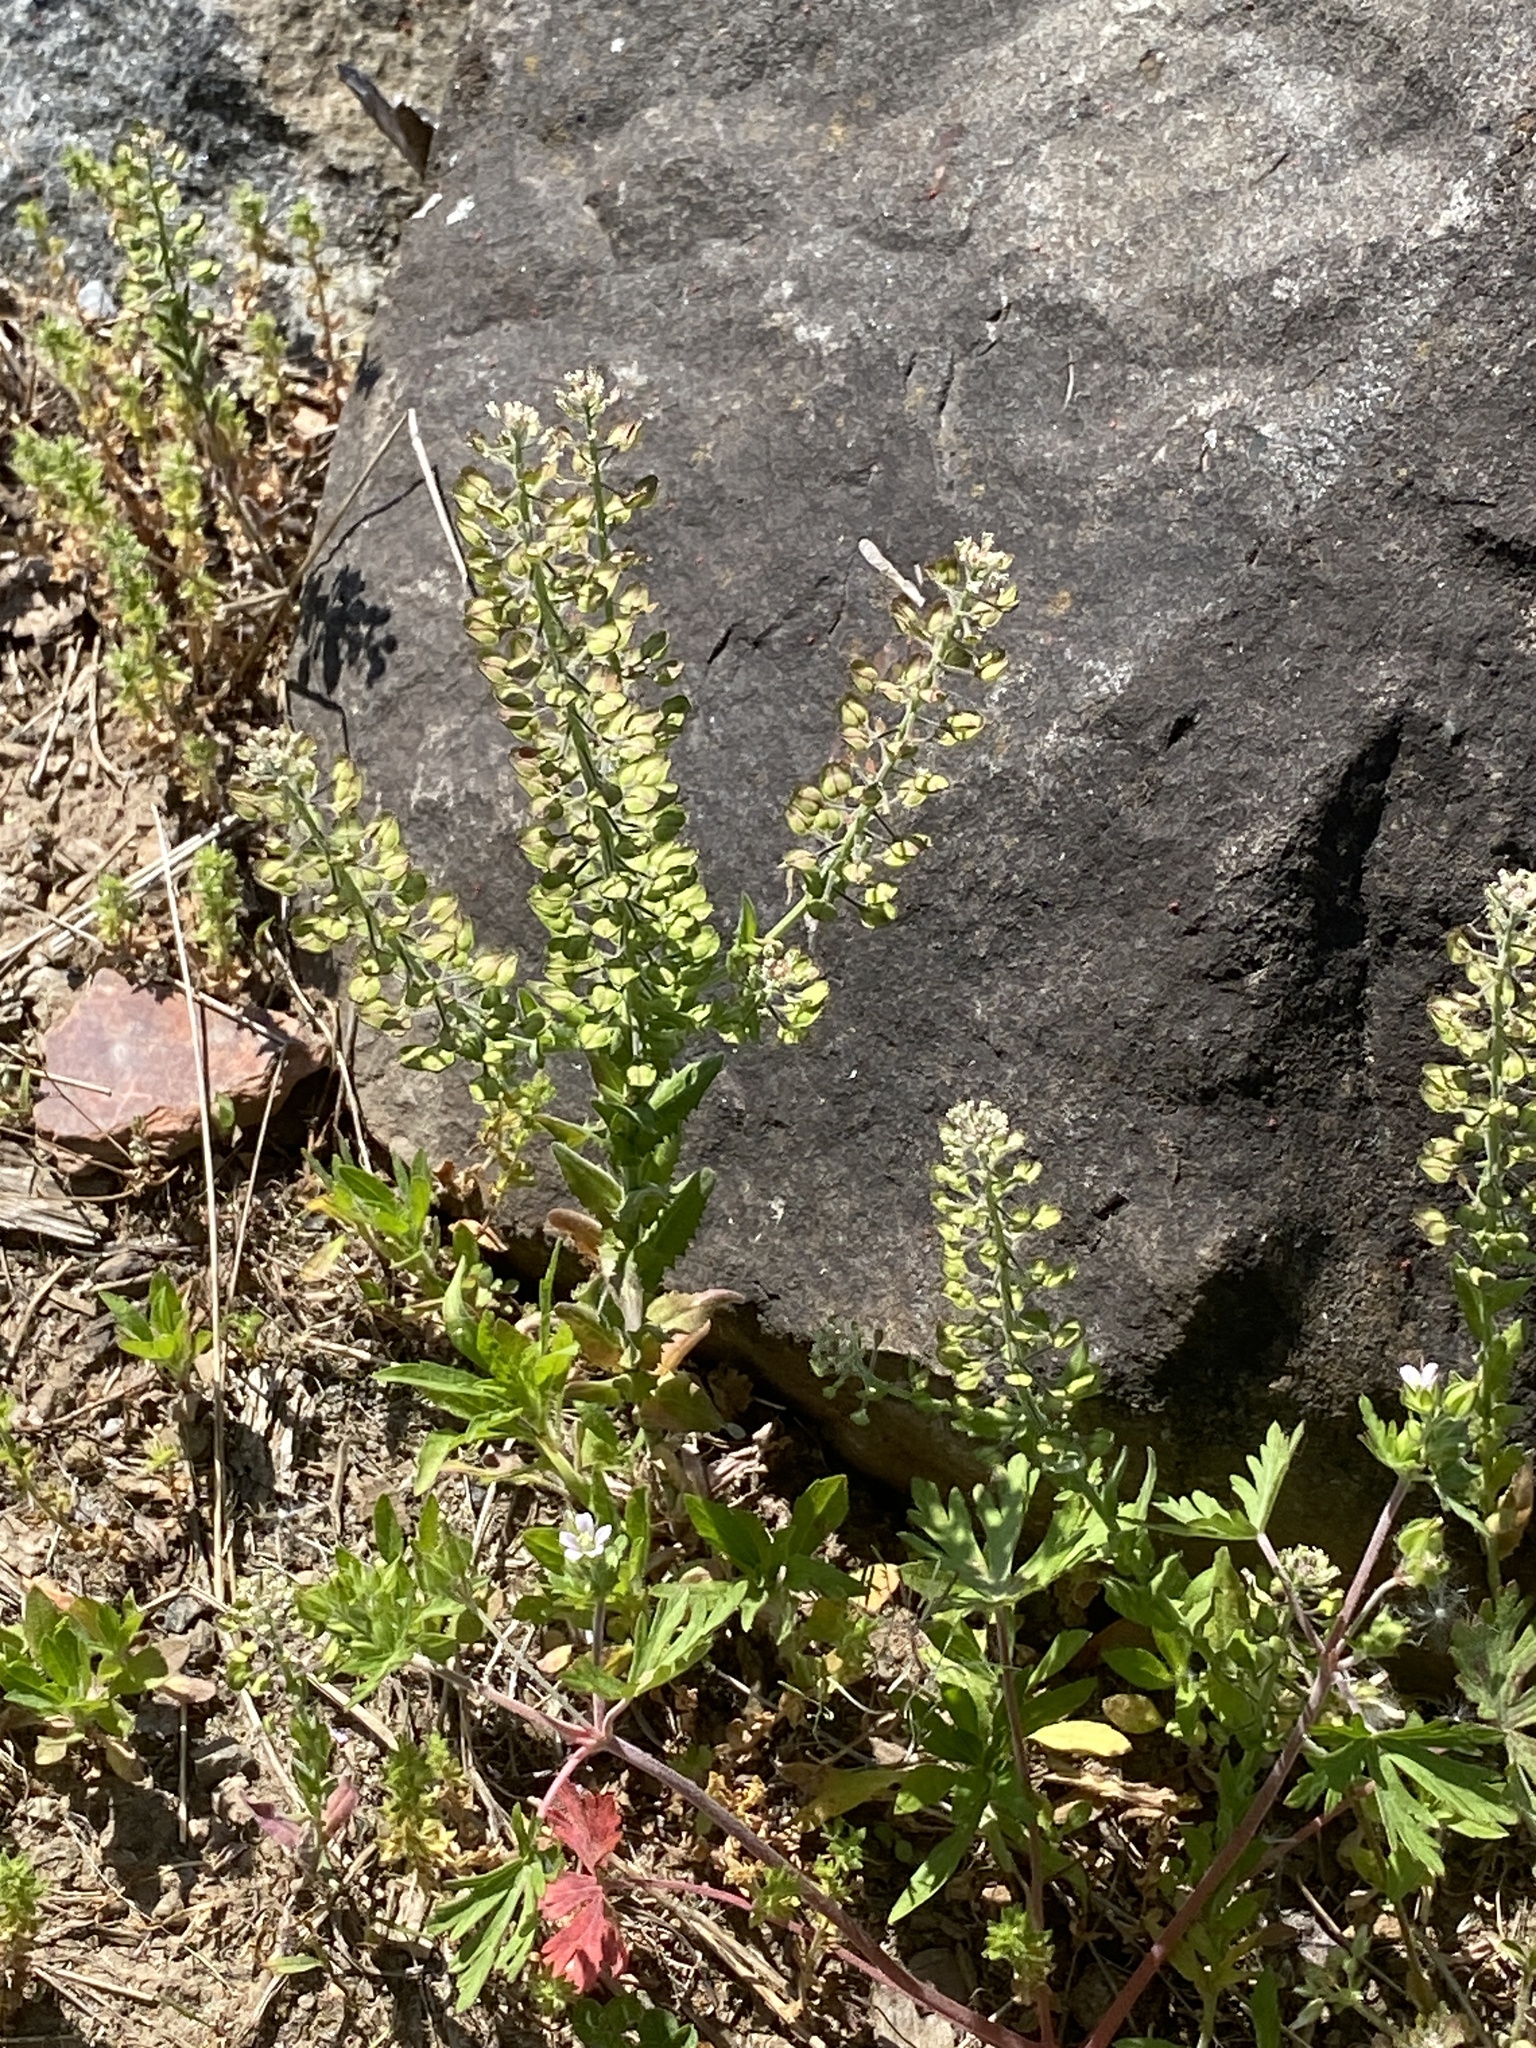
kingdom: Plantae
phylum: Tracheophyta
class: Magnoliopsida
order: Brassicales
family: Brassicaceae
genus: Lepidium
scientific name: Lepidium campestre
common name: Field pepperwort
